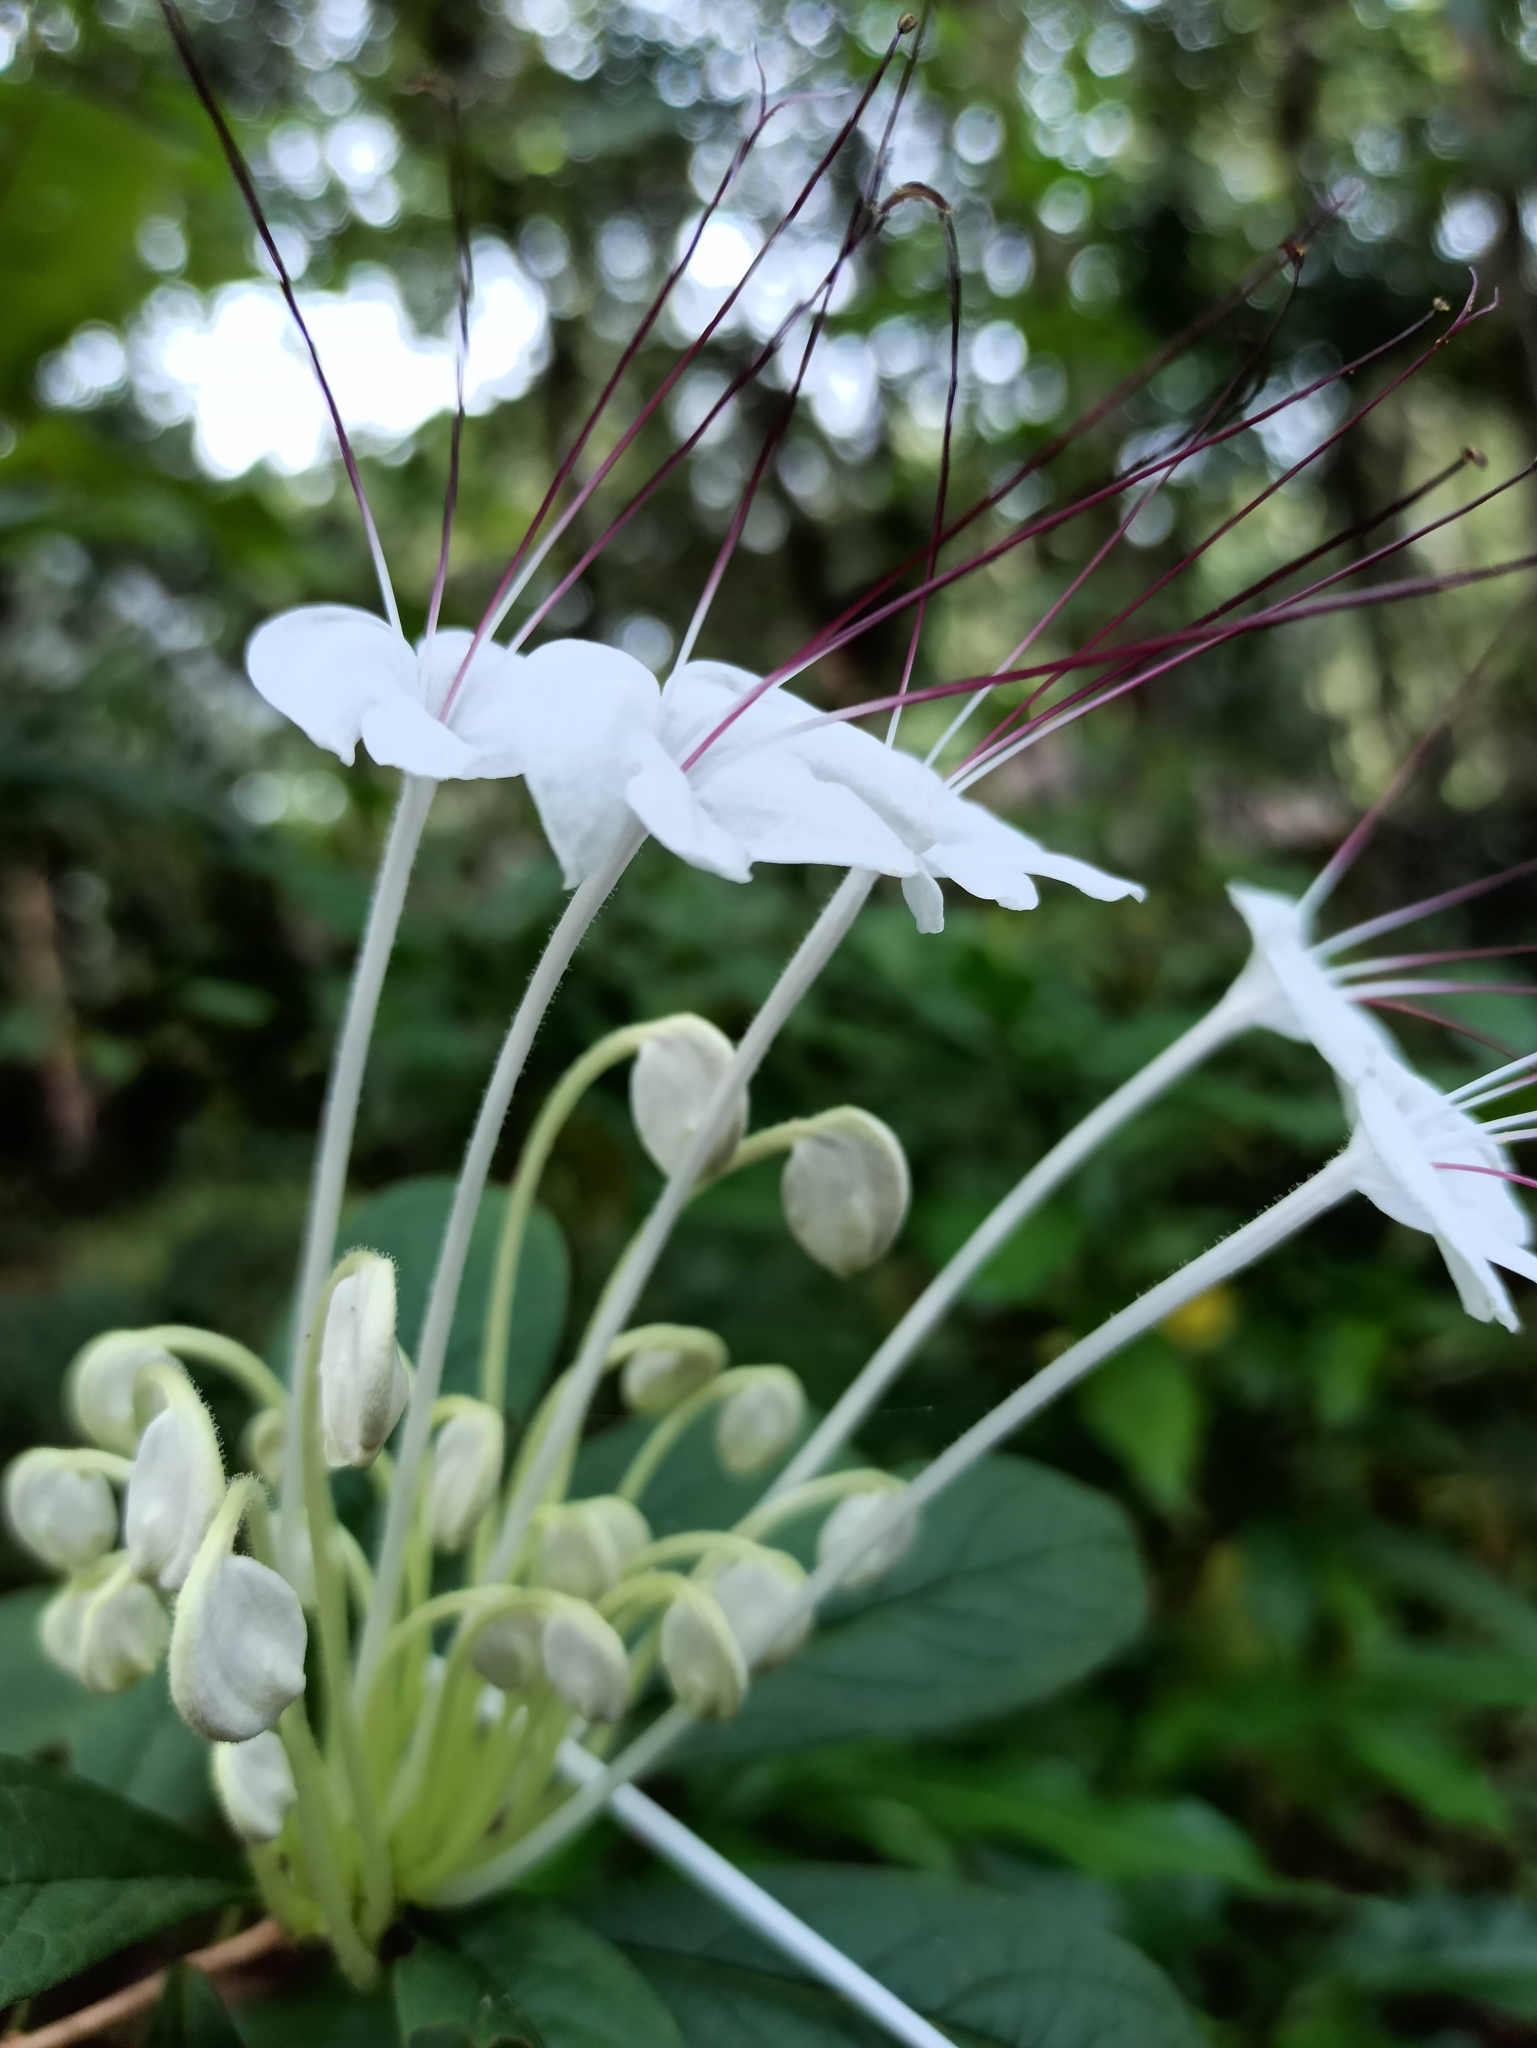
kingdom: Plantae
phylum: Tracheophyta
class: Magnoliopsida
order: Lamiales
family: Lamiaceae
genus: Rotheca
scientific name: Rotheca microphylla
